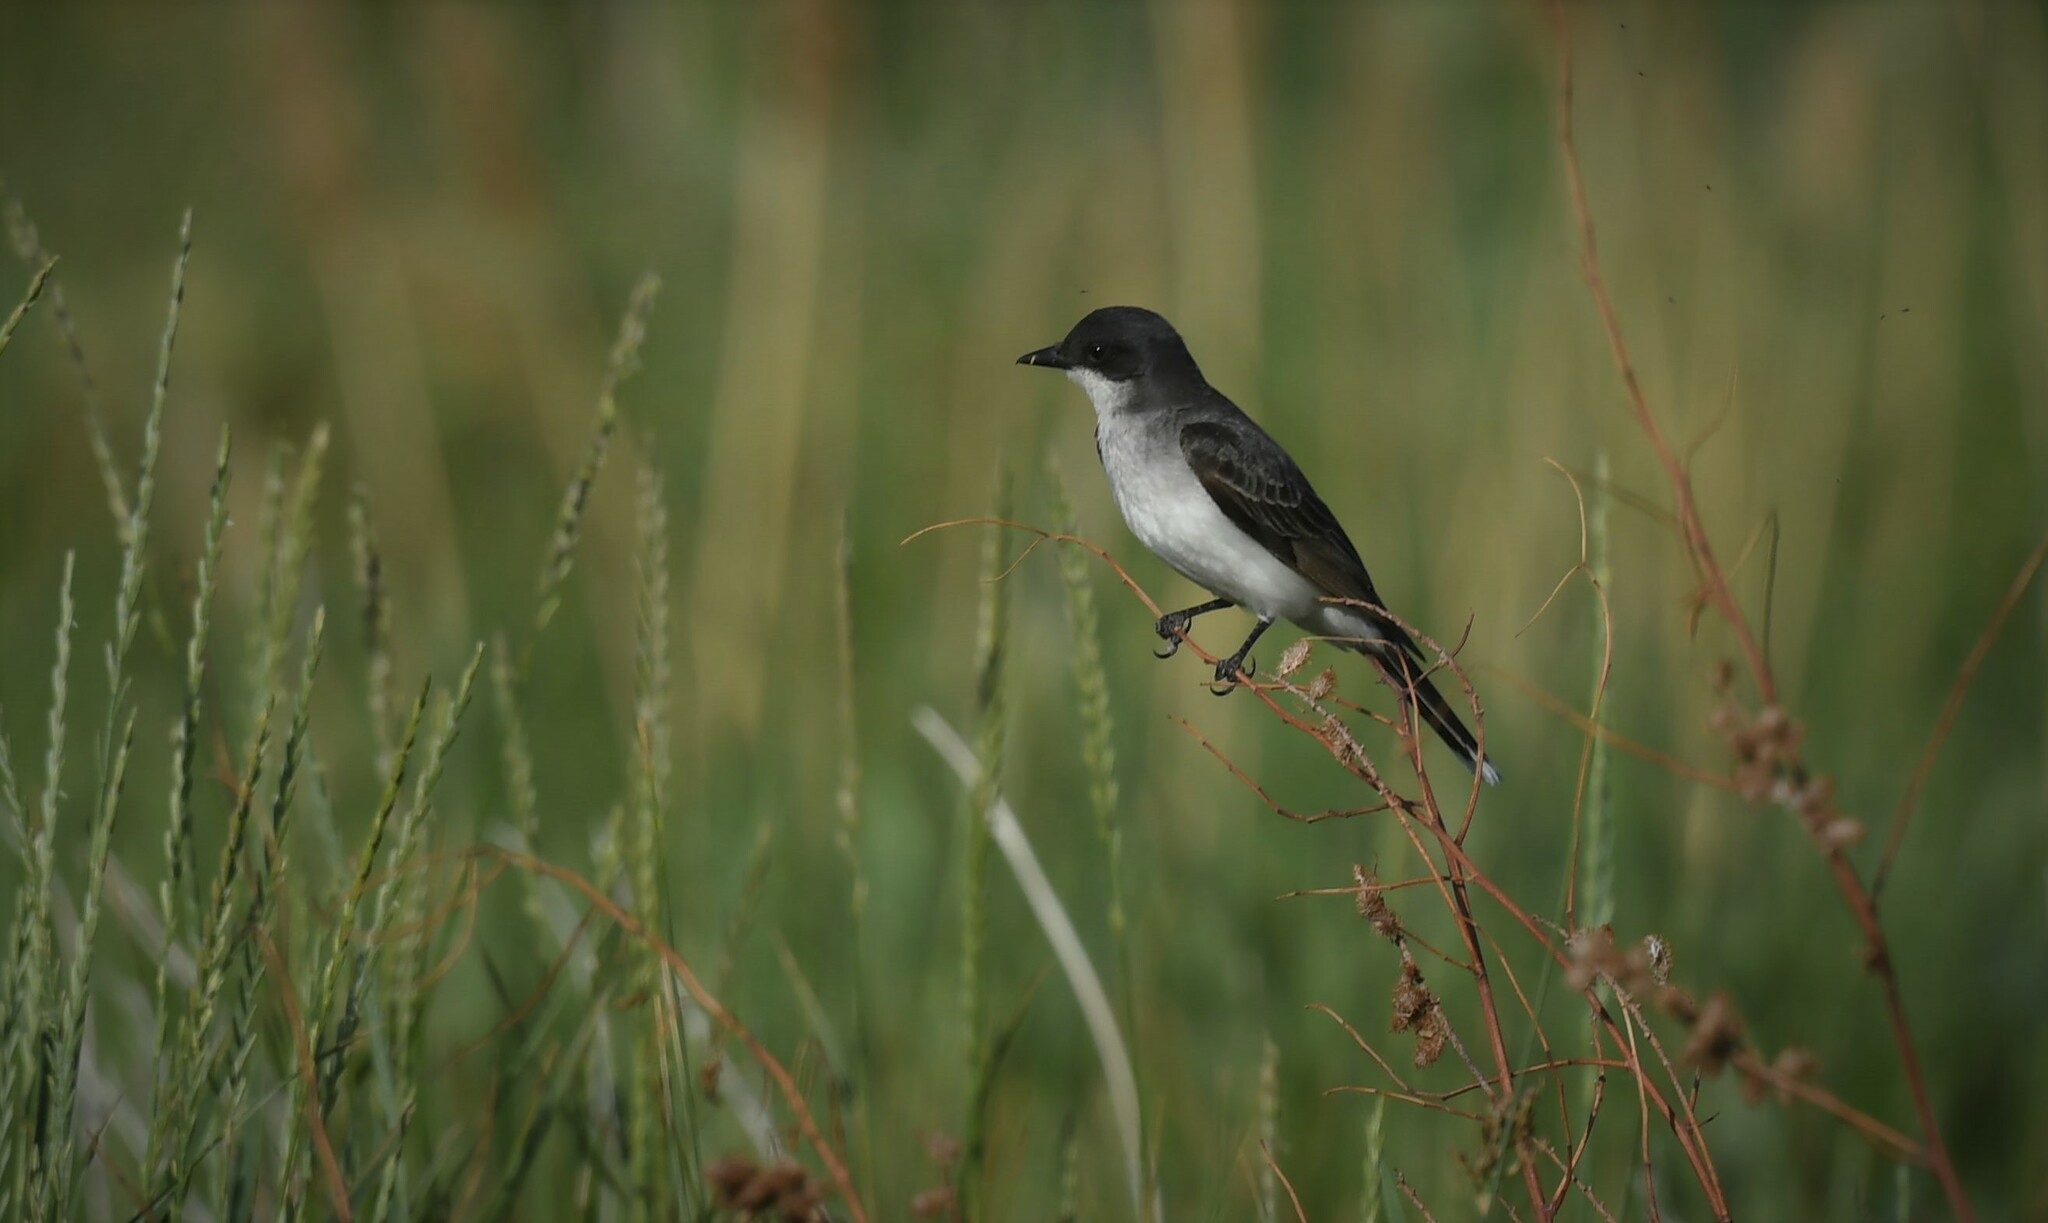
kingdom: Animalia
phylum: Chordata
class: Aves
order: Passeriformes
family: Tyrannidae
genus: Tyrannus
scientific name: Tyrannus tyrannus
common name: Eastern kingbird
